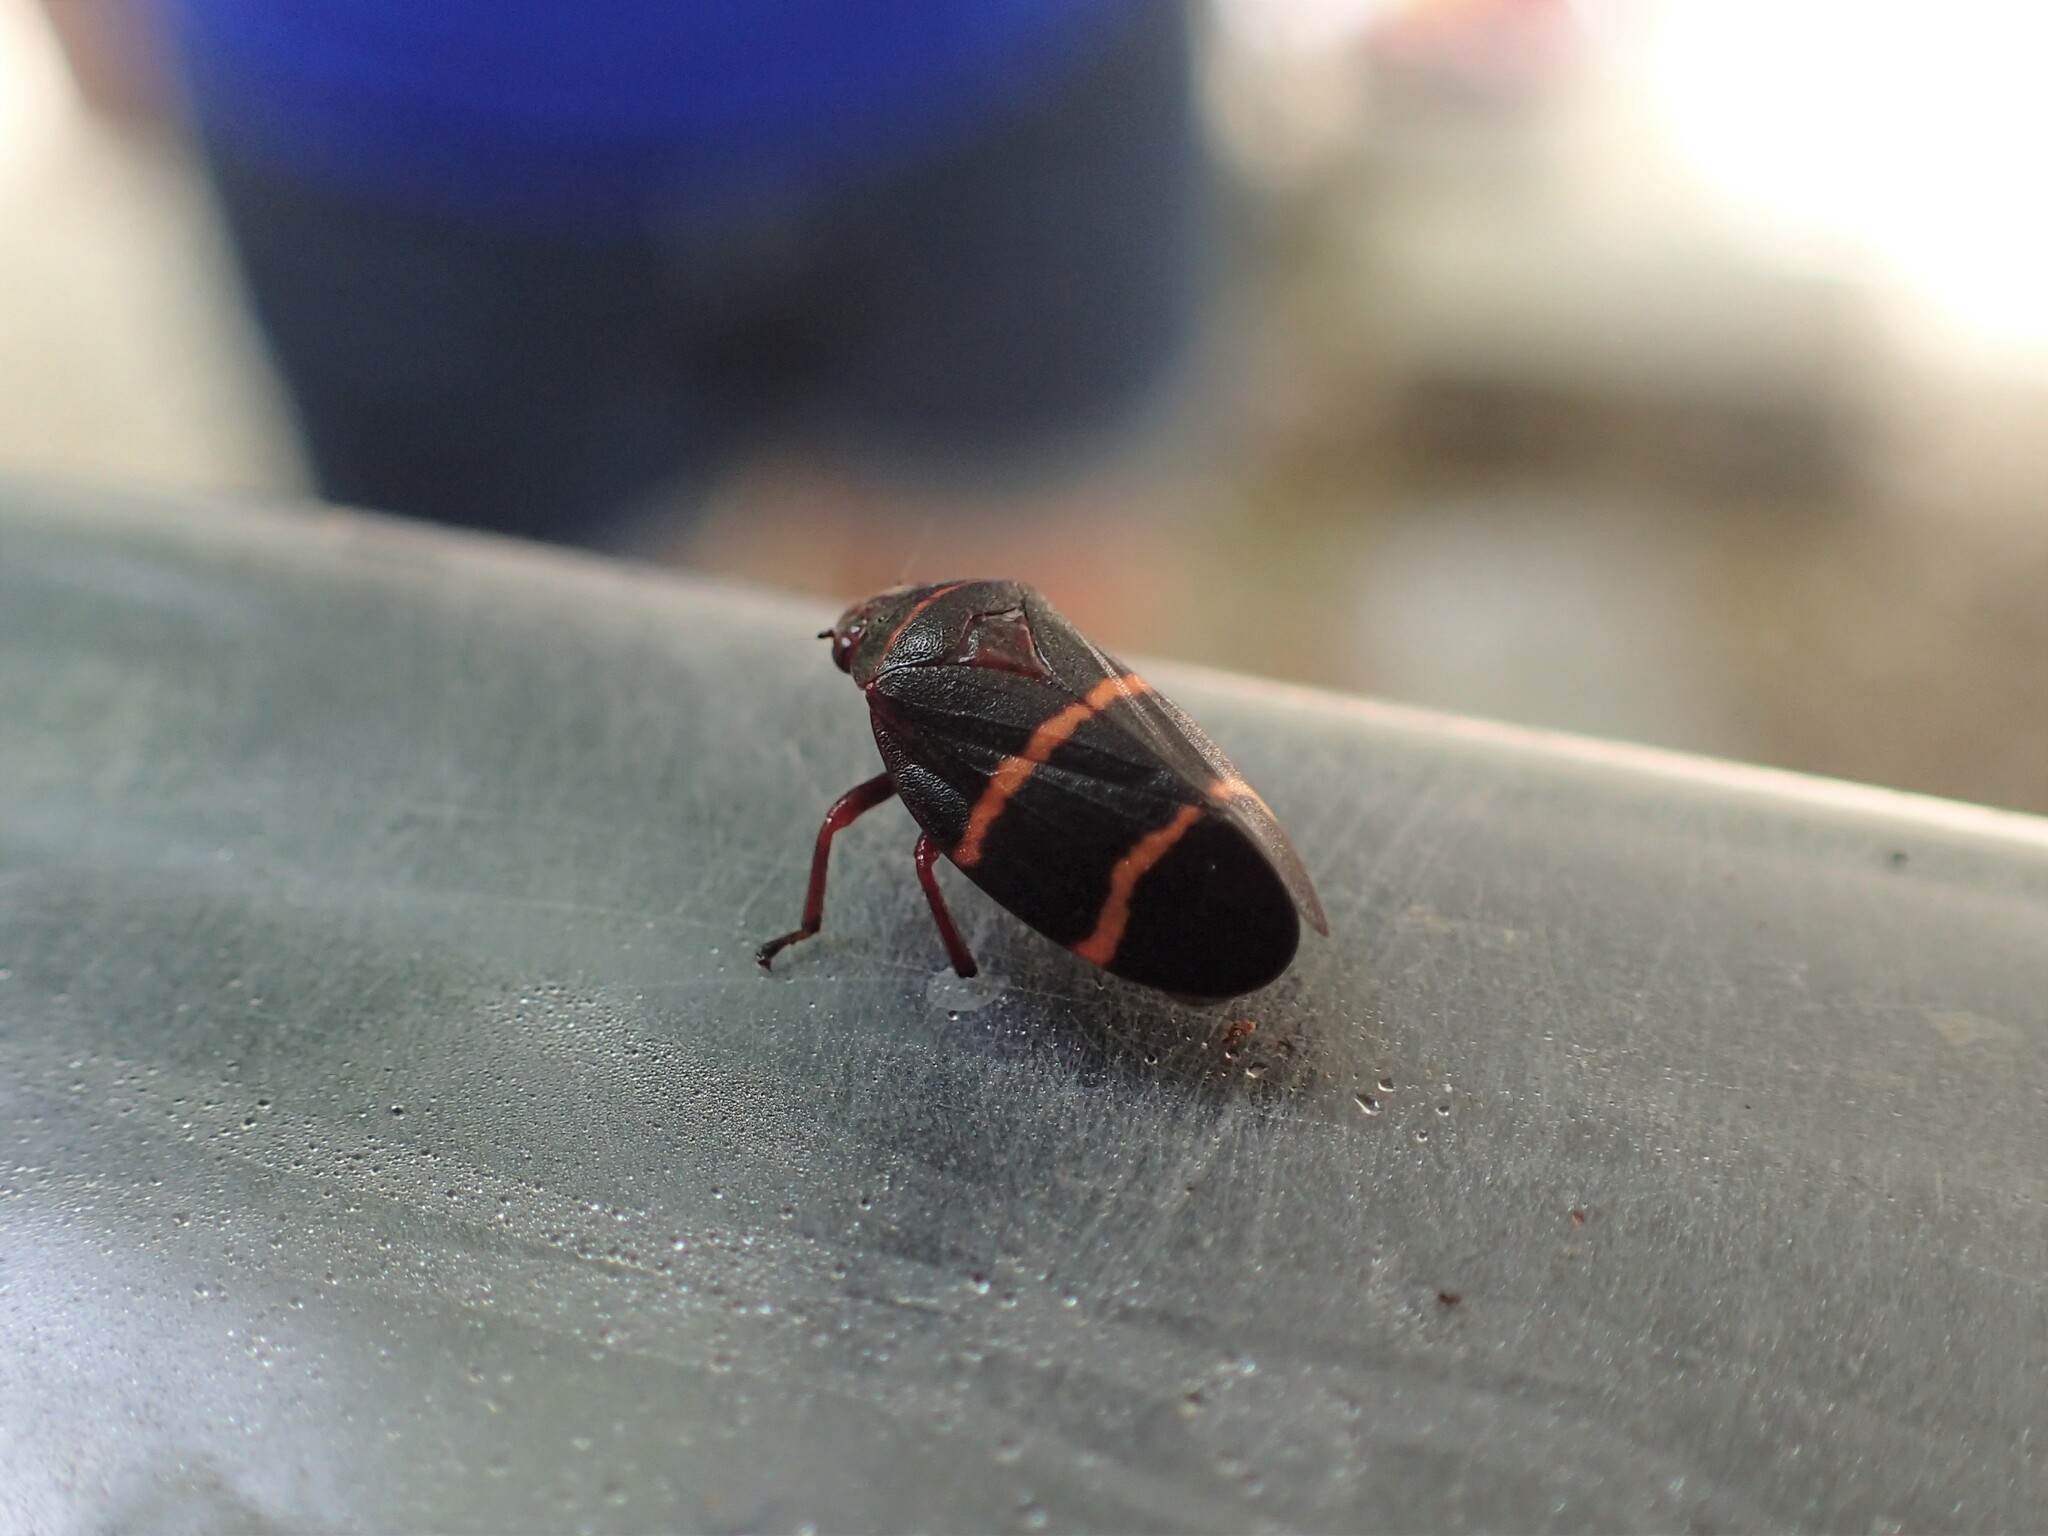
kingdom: Animalia
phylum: Arthropoda
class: Insecta
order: Hemiptera
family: Cercopidae
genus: Prosapia
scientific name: Prosapia bicincta
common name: Twolined spittlebug
